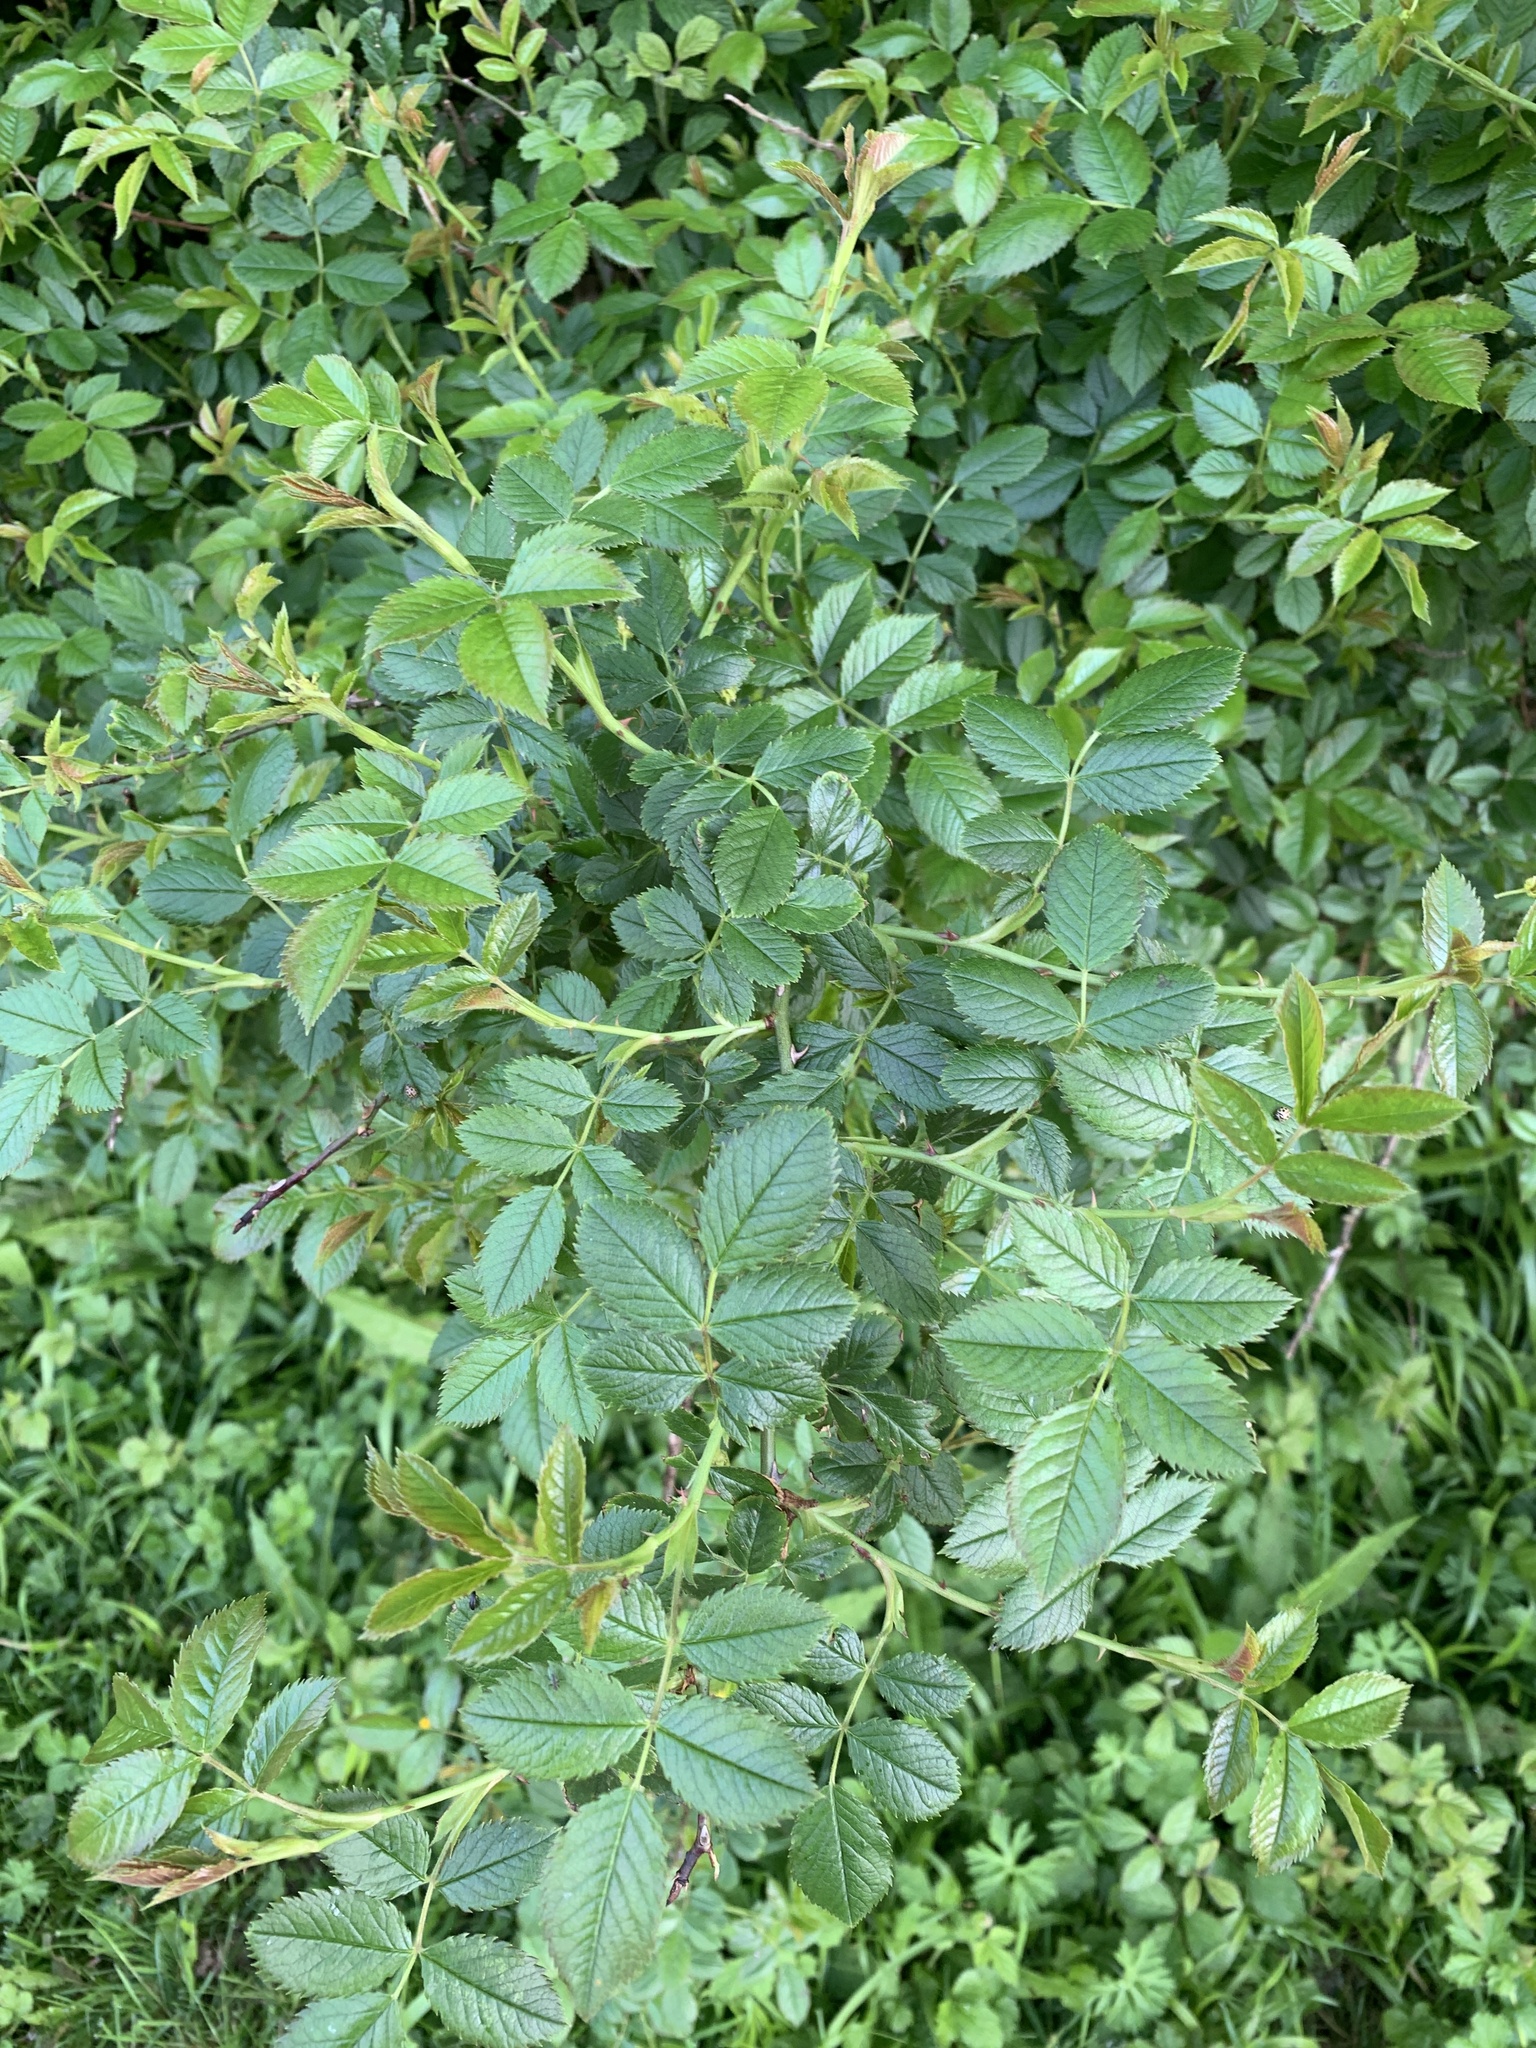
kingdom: Plantae
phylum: Tracheophyta
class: Magnoliopsida
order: Rosales
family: Rosaceae
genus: Rosa
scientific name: Rosa canina
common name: Dog rose
